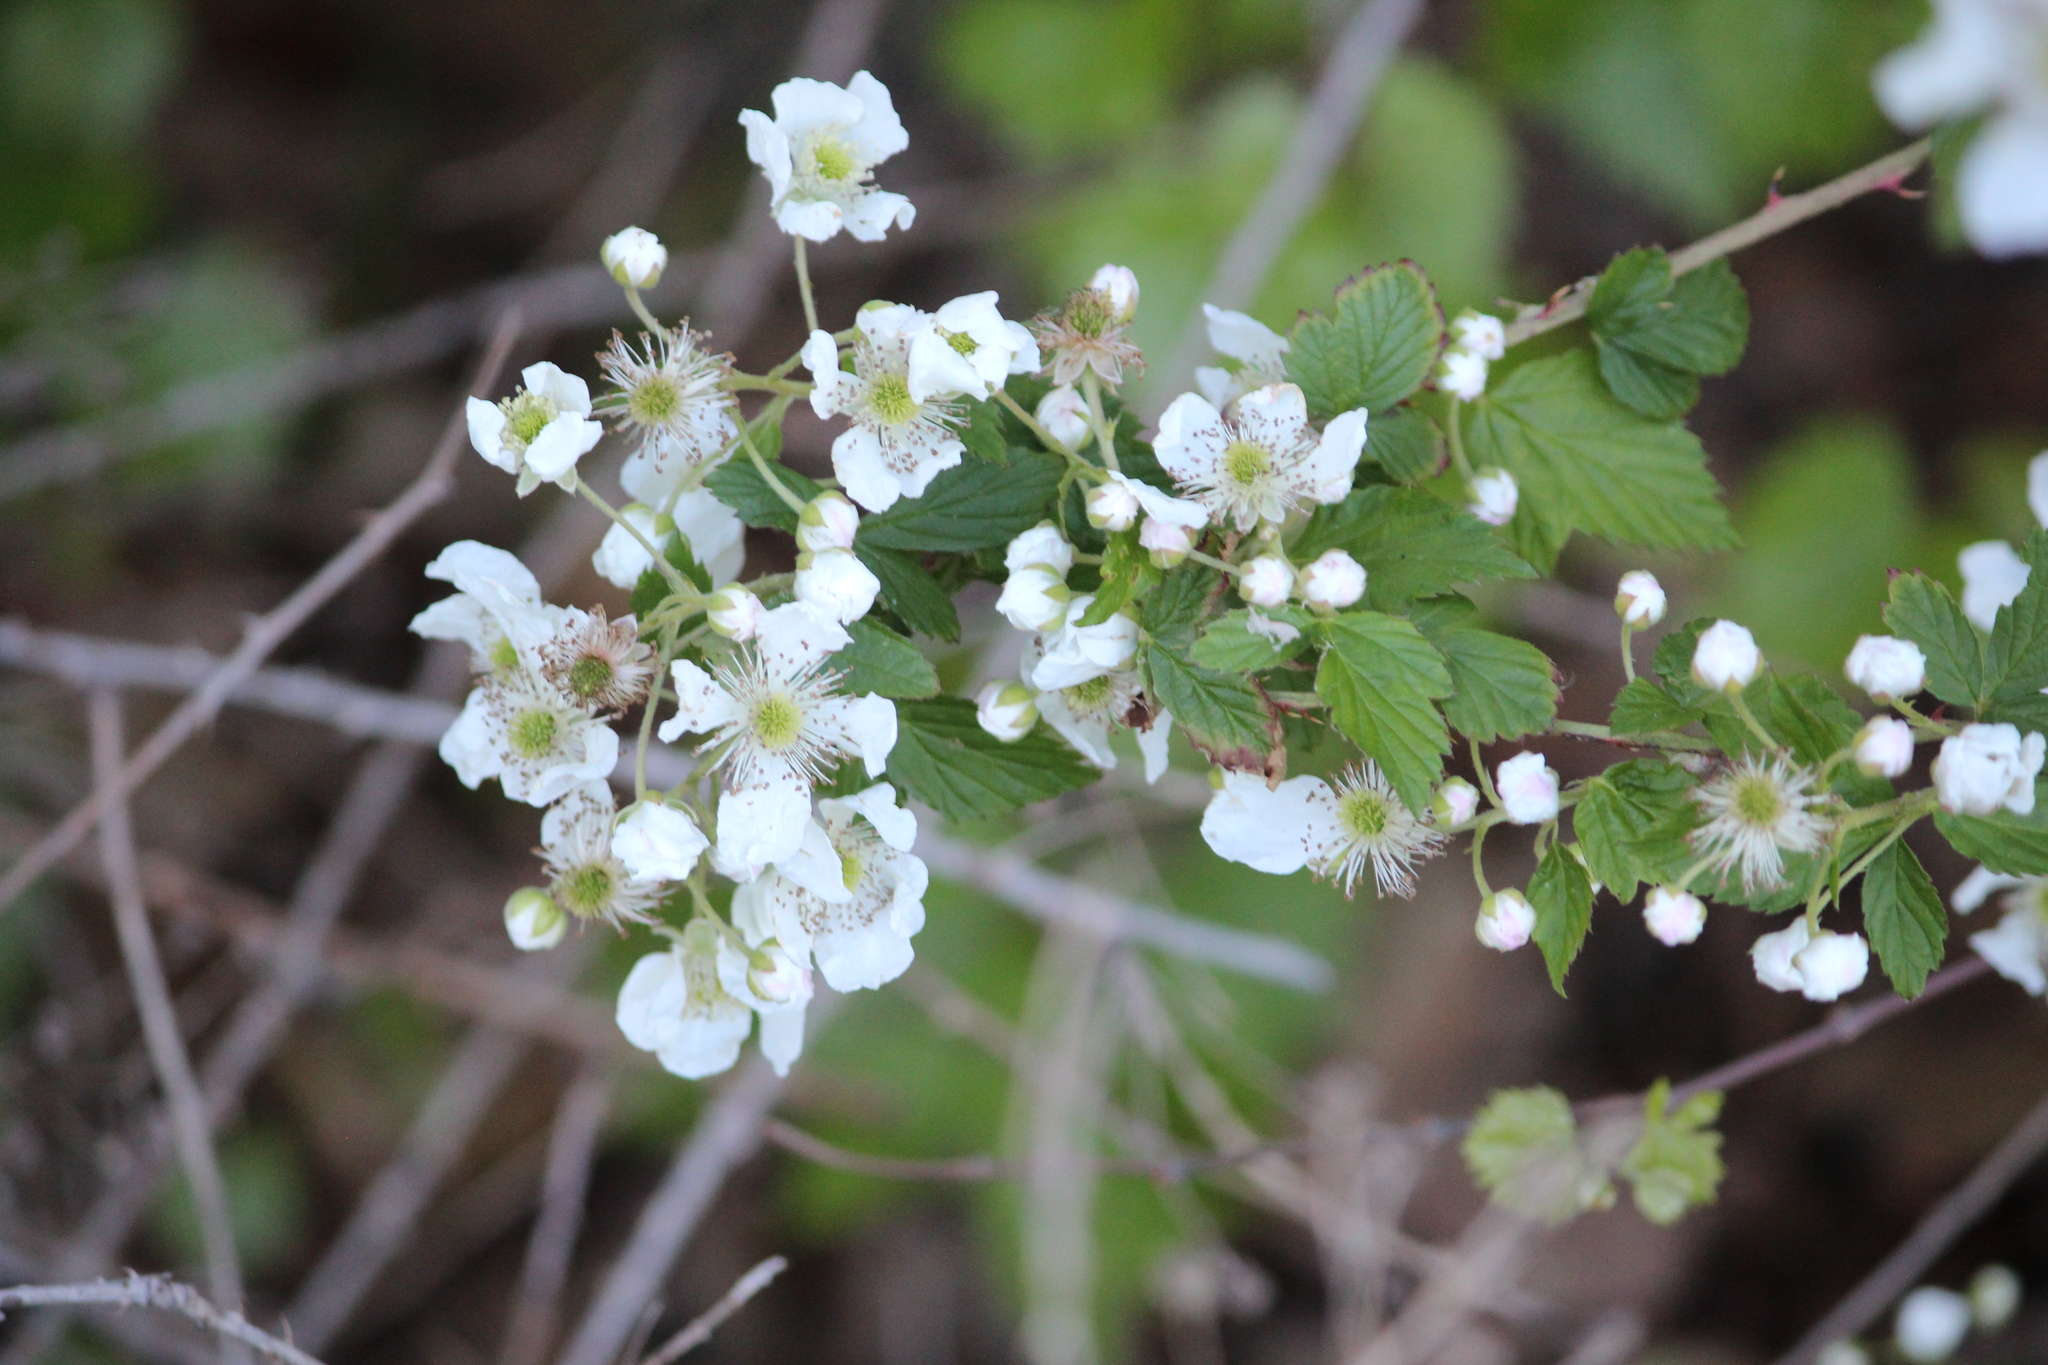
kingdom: Plantae
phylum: Tracheophyta
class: Magnoliopsida
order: Rosales
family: Rosaceae
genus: Rubus
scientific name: Rubus pensilvanicus
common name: Pennsylvania blackberry
